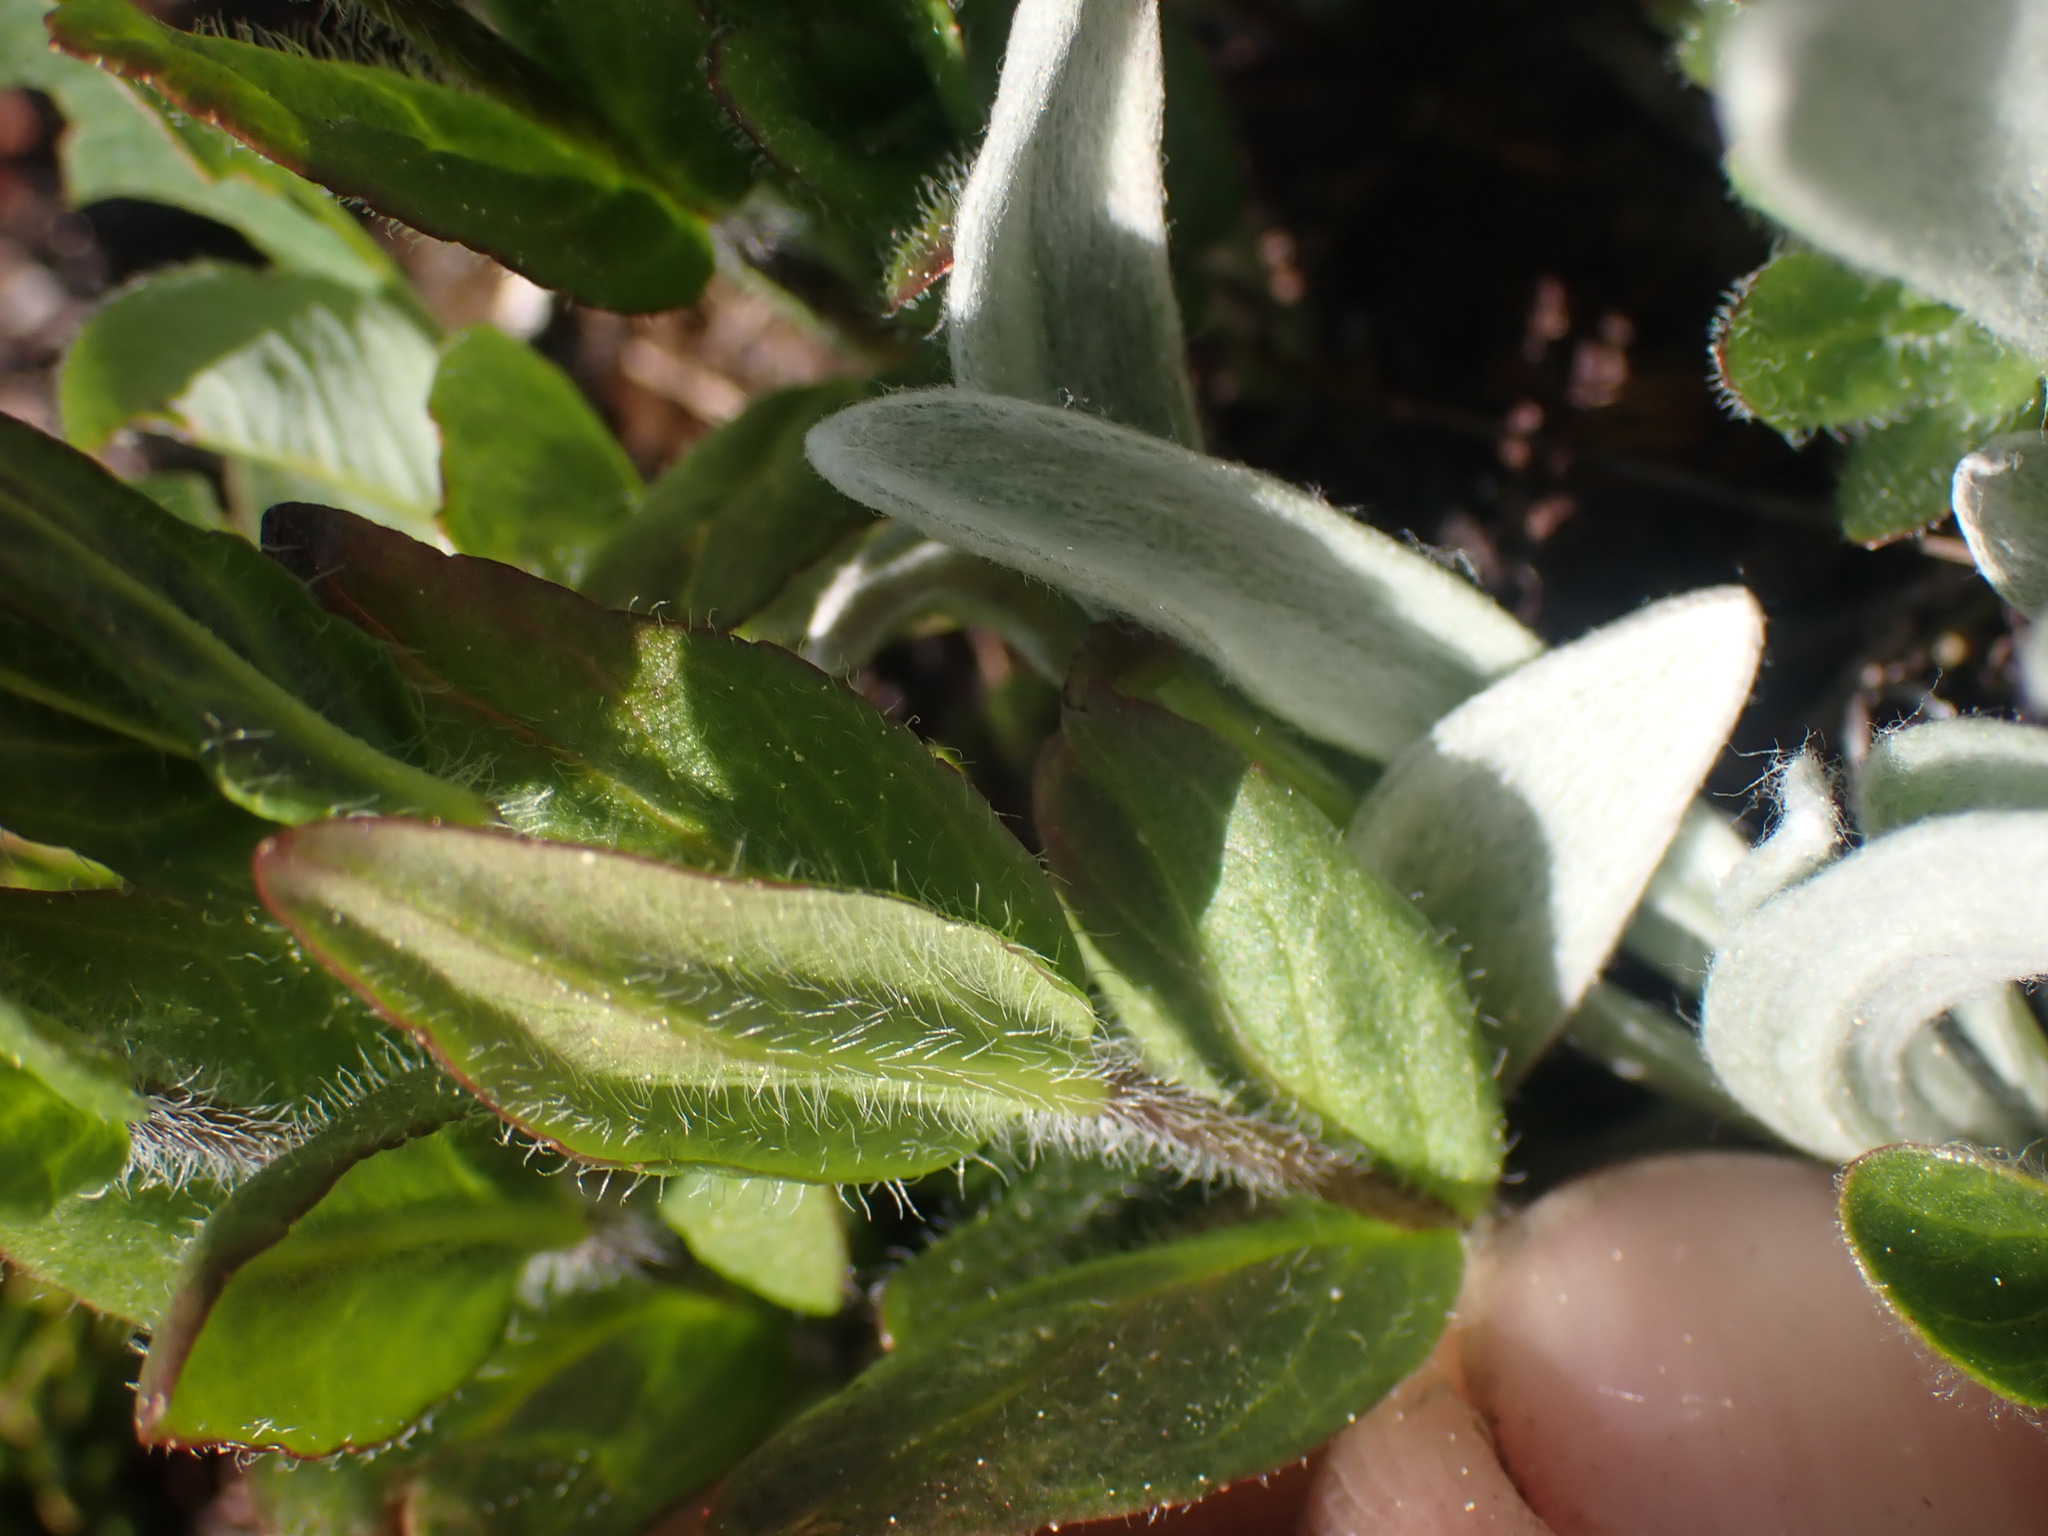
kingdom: Plantae
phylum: Tracheophyta
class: Magnoliopsida
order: Lamiales
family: Plantaginaceae
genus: Veronica
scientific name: Veronica wormskjoldii
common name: American alpine speedwell
